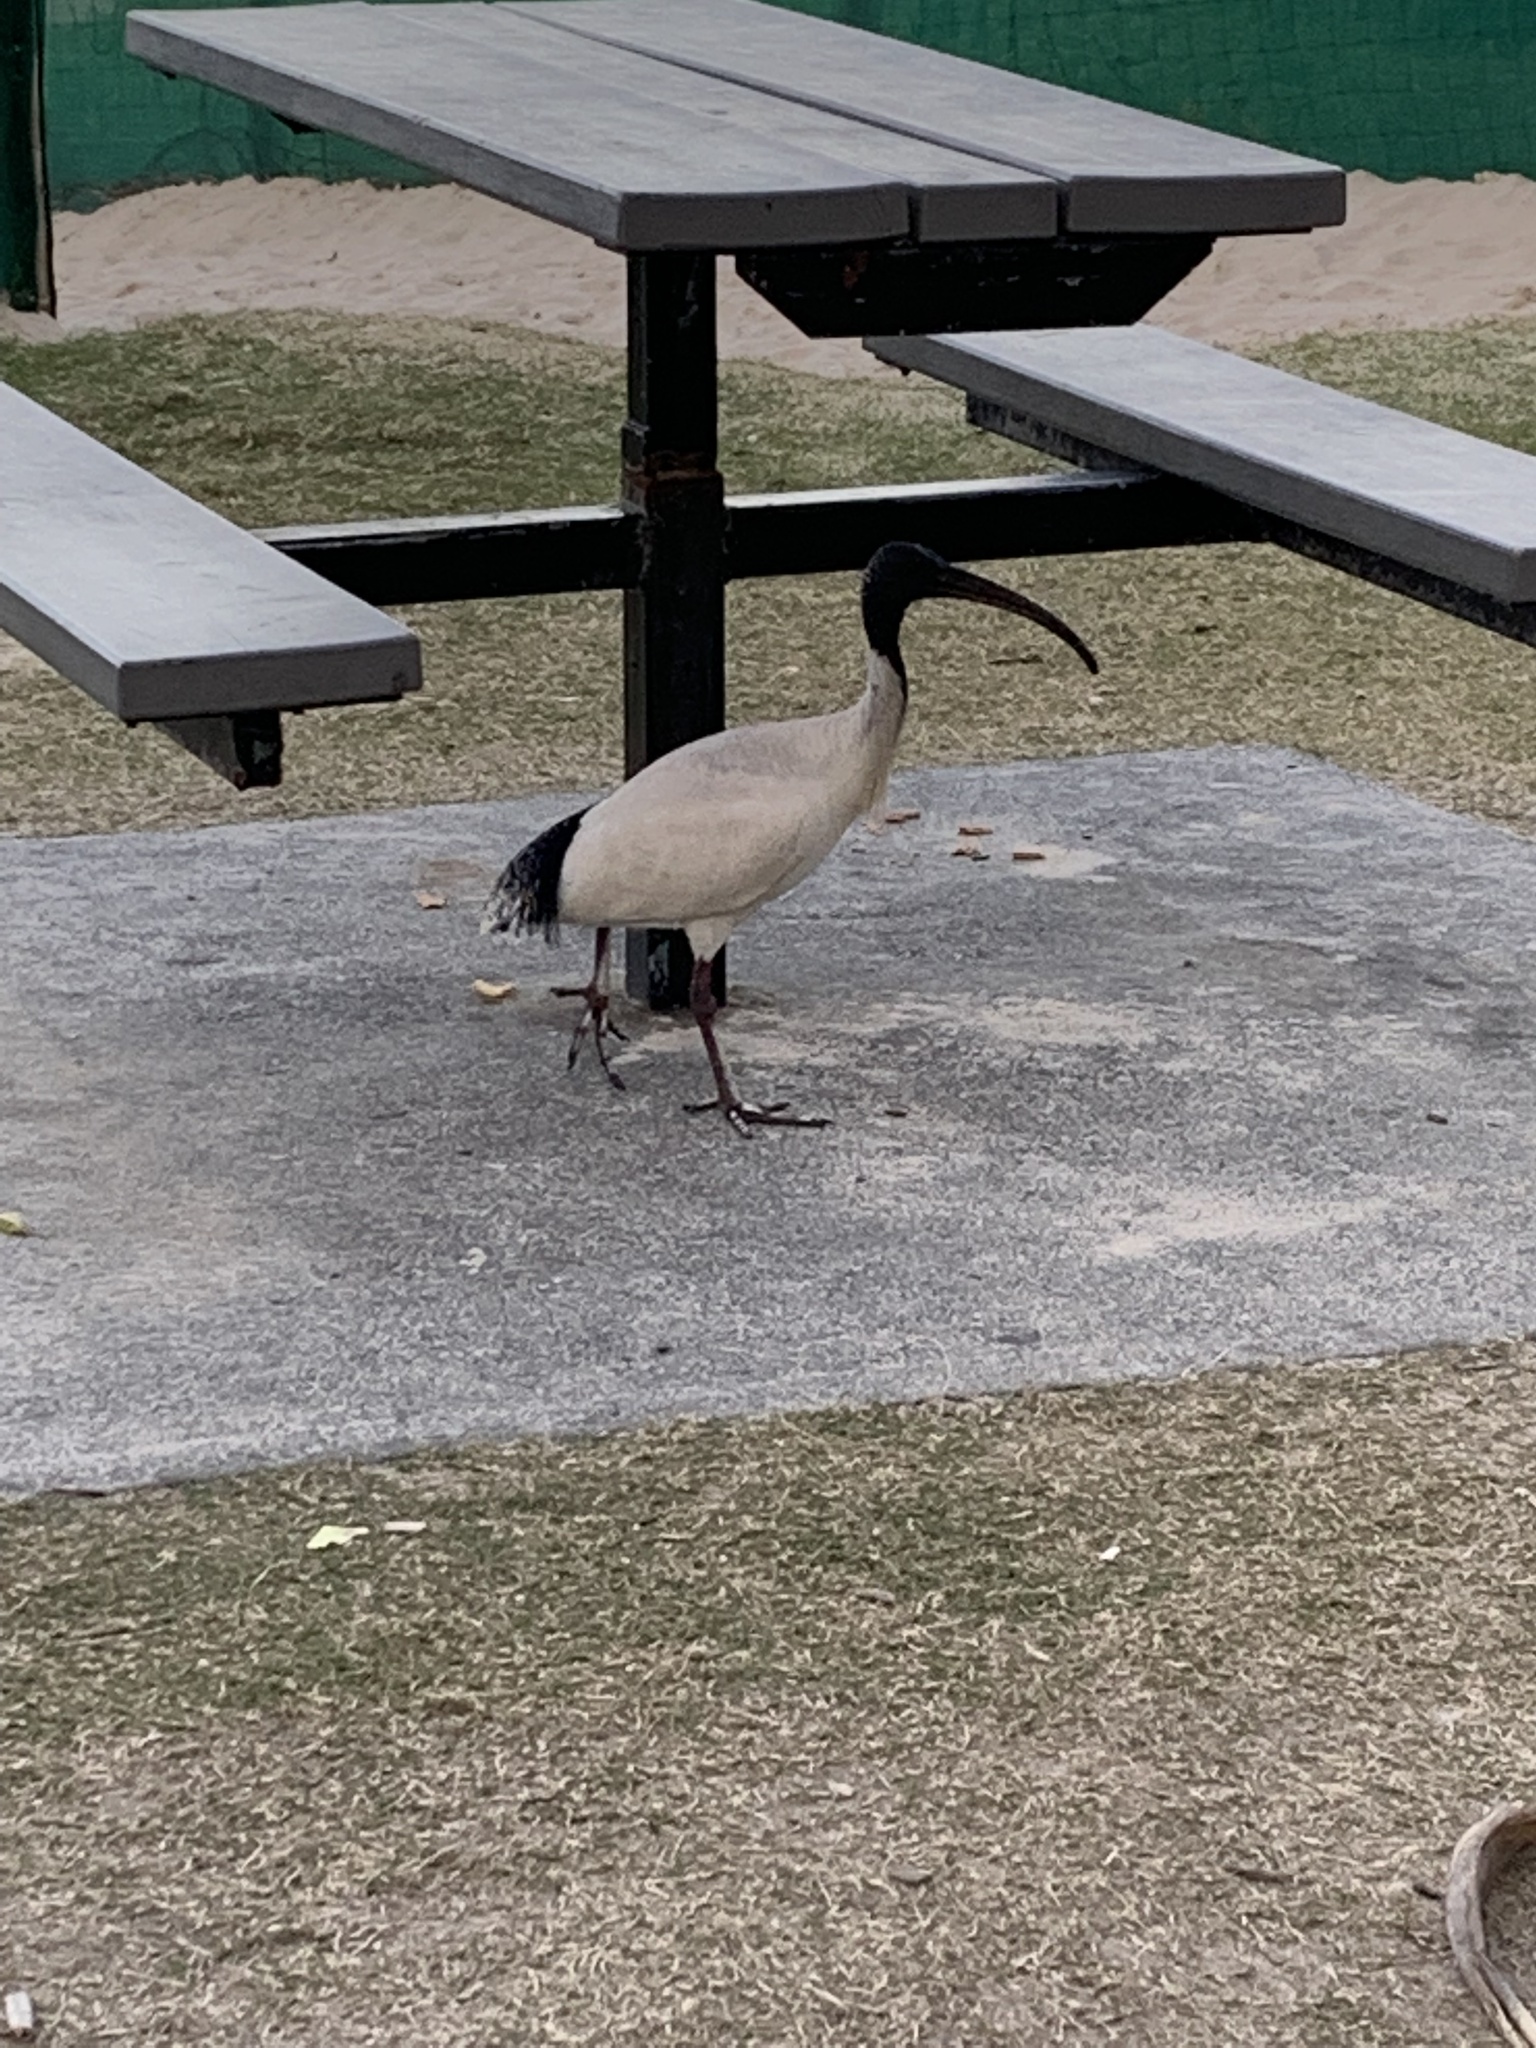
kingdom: Animalia
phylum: Chordata
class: Aves
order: Pelecaniformes
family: Threskiornithidae
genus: Threskiornis
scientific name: Threskiornis molucca
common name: Australian white ibis
